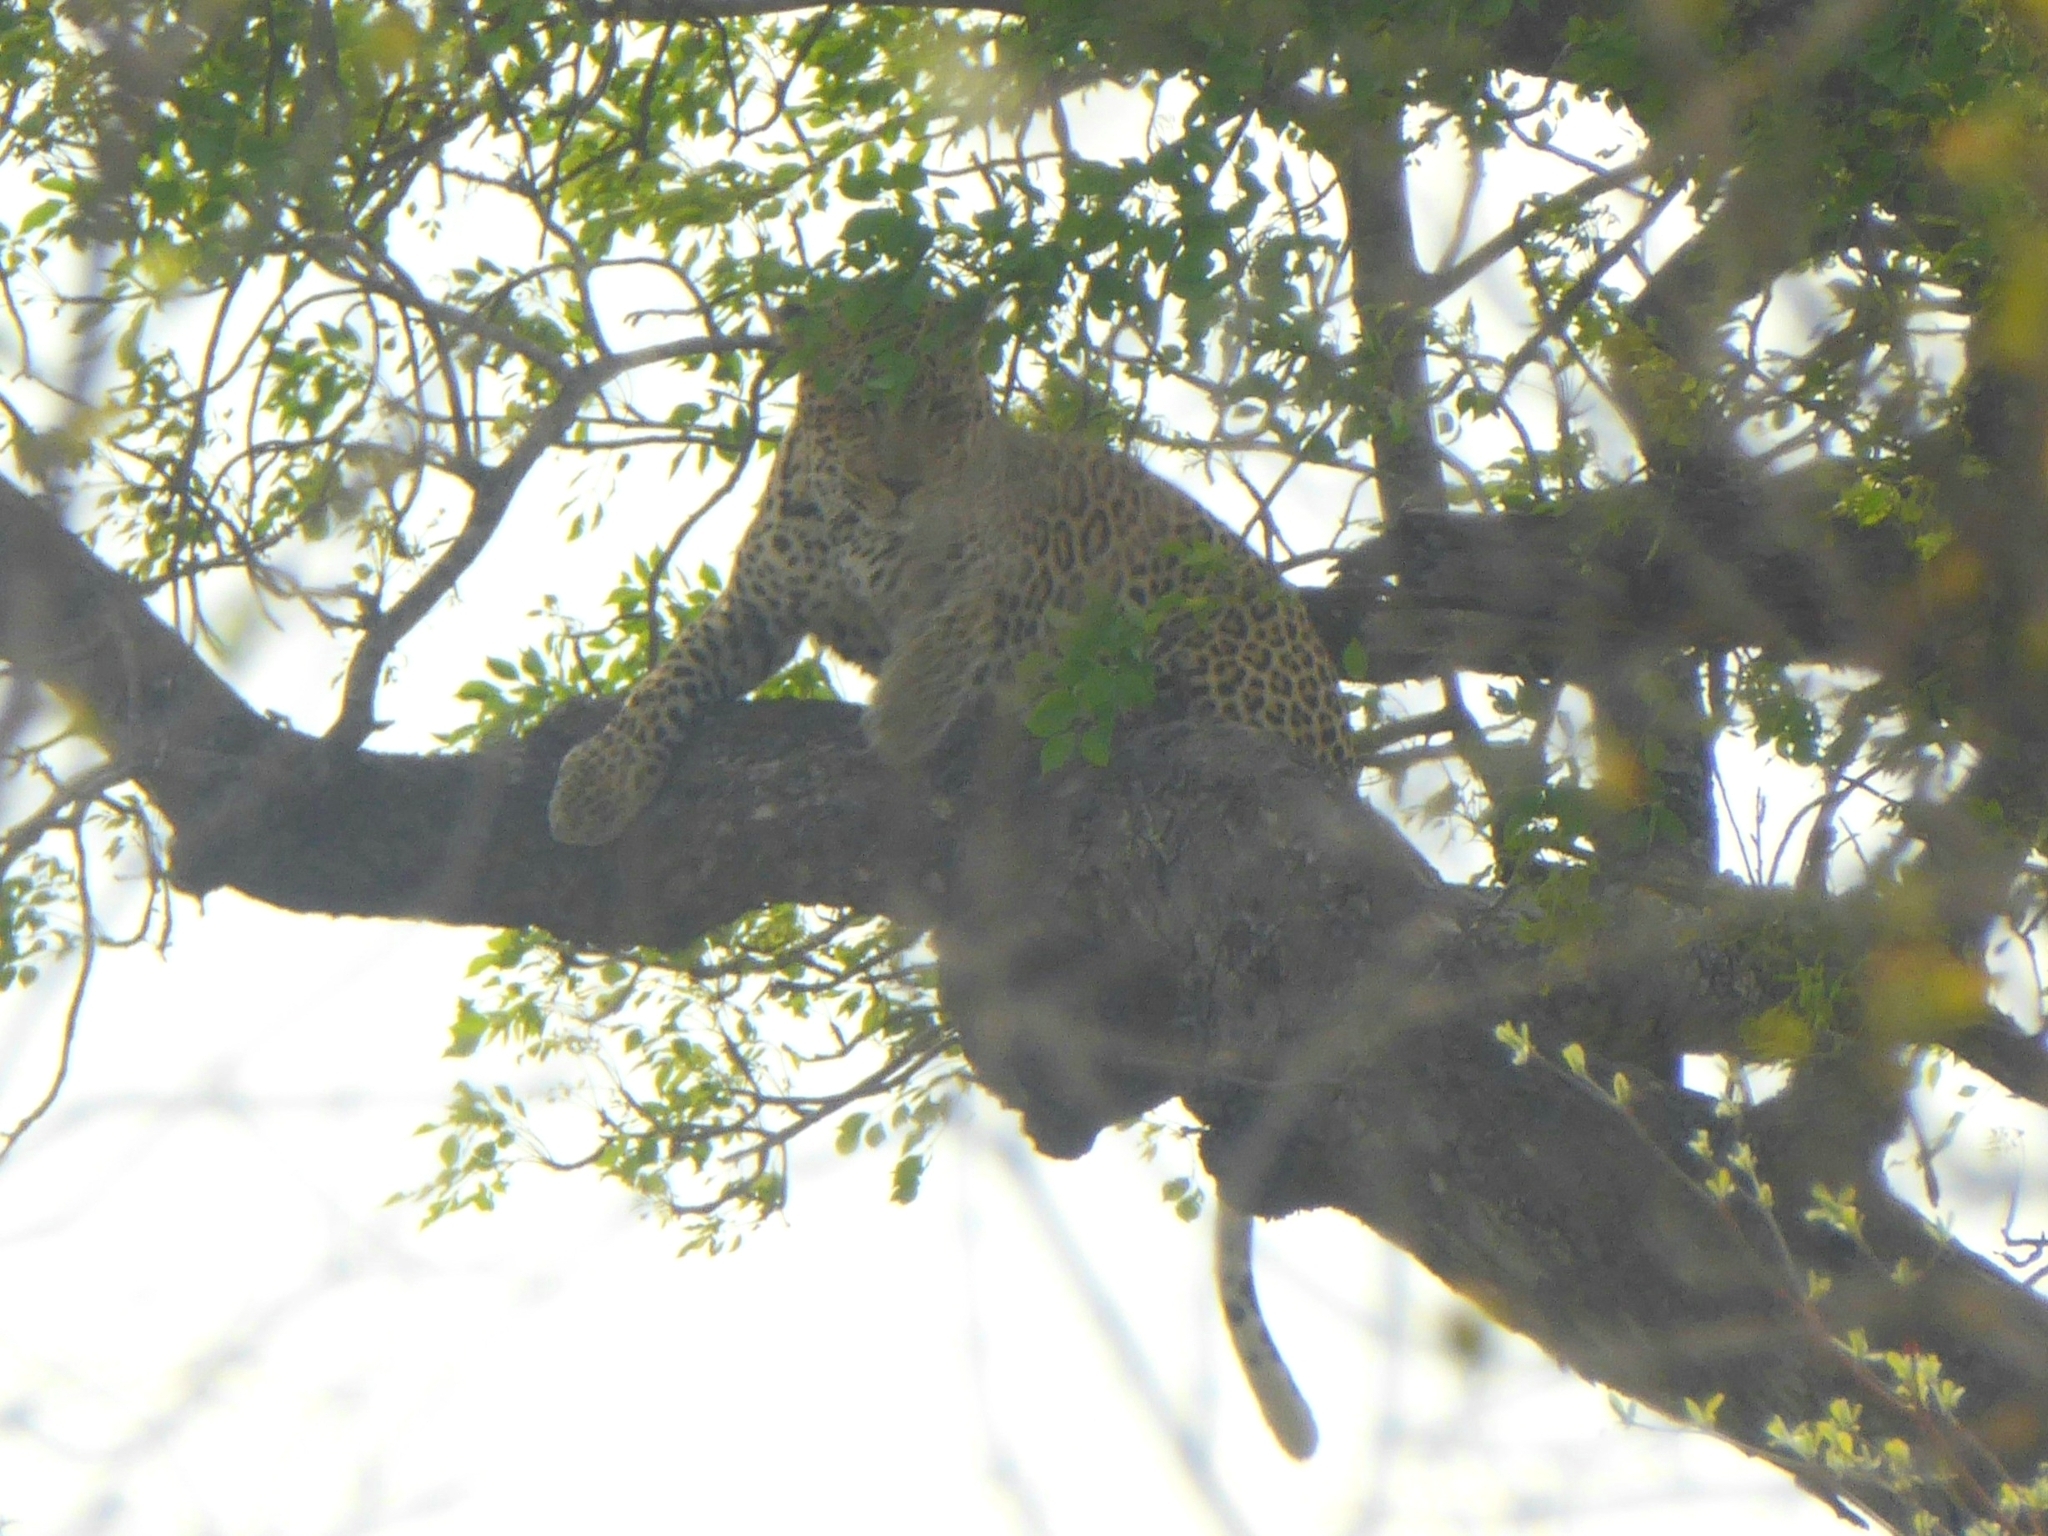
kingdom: Animalia
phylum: Chordata
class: Mammalia
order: Carnivora
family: Felidae
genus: Panthera
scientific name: Panthera pardus
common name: Leopard
